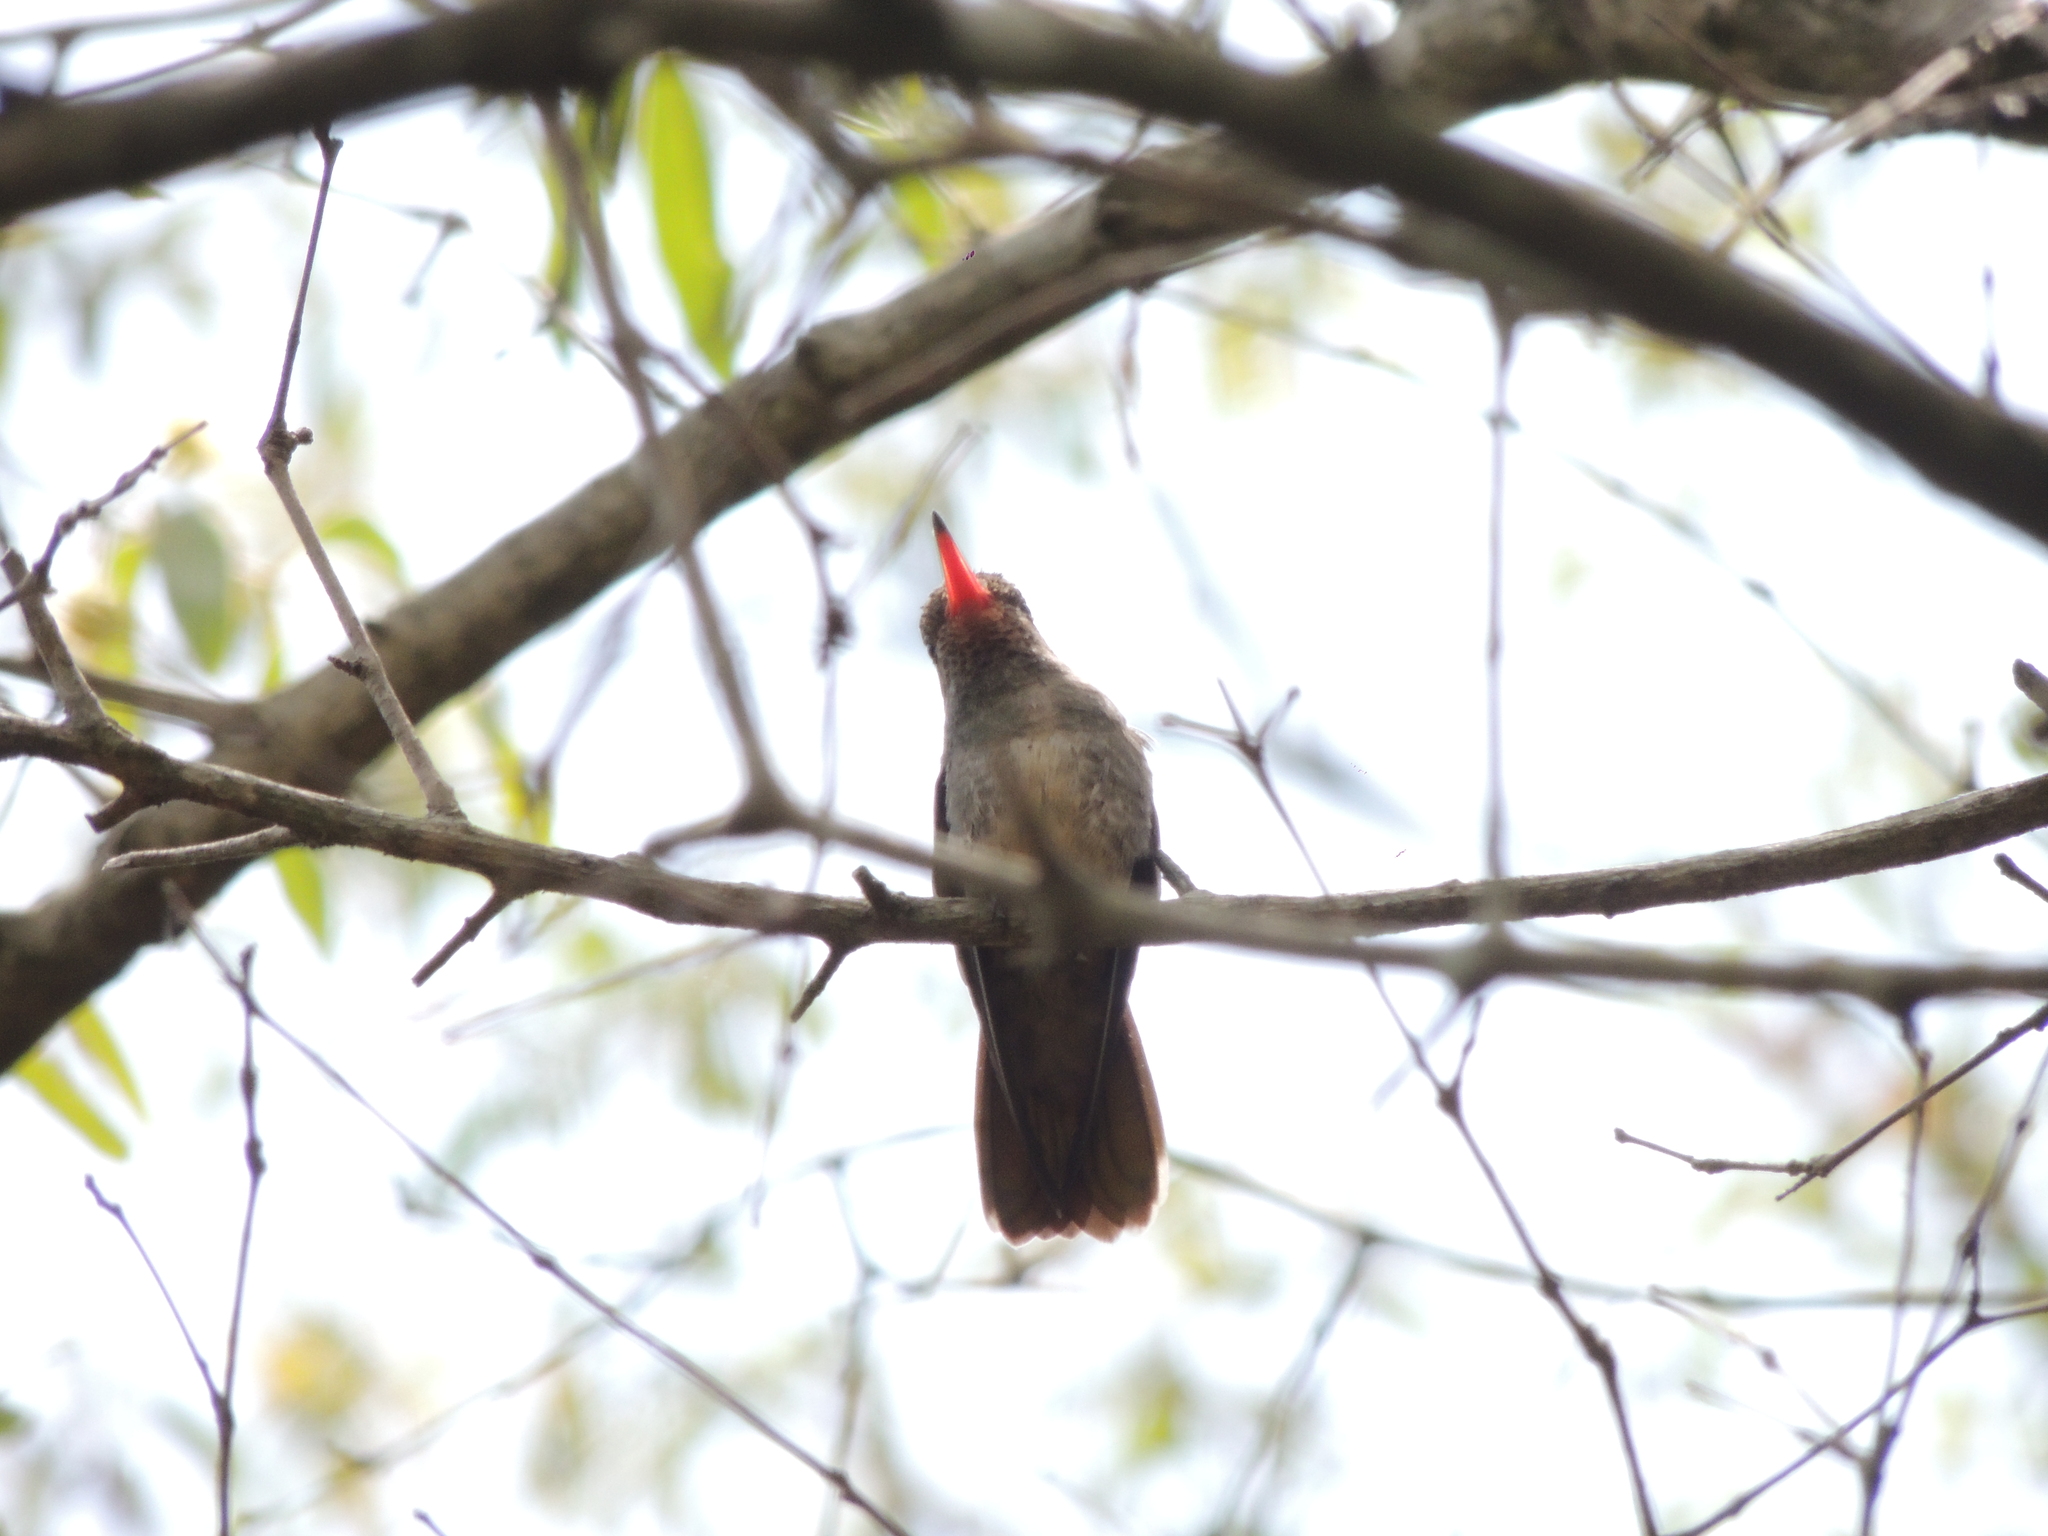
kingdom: Animalia
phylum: Chordata
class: Aves
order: Apodiformes
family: Trochilidae
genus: Hylocharis
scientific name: Hylocharis chrysura
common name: Gilded sapphire
